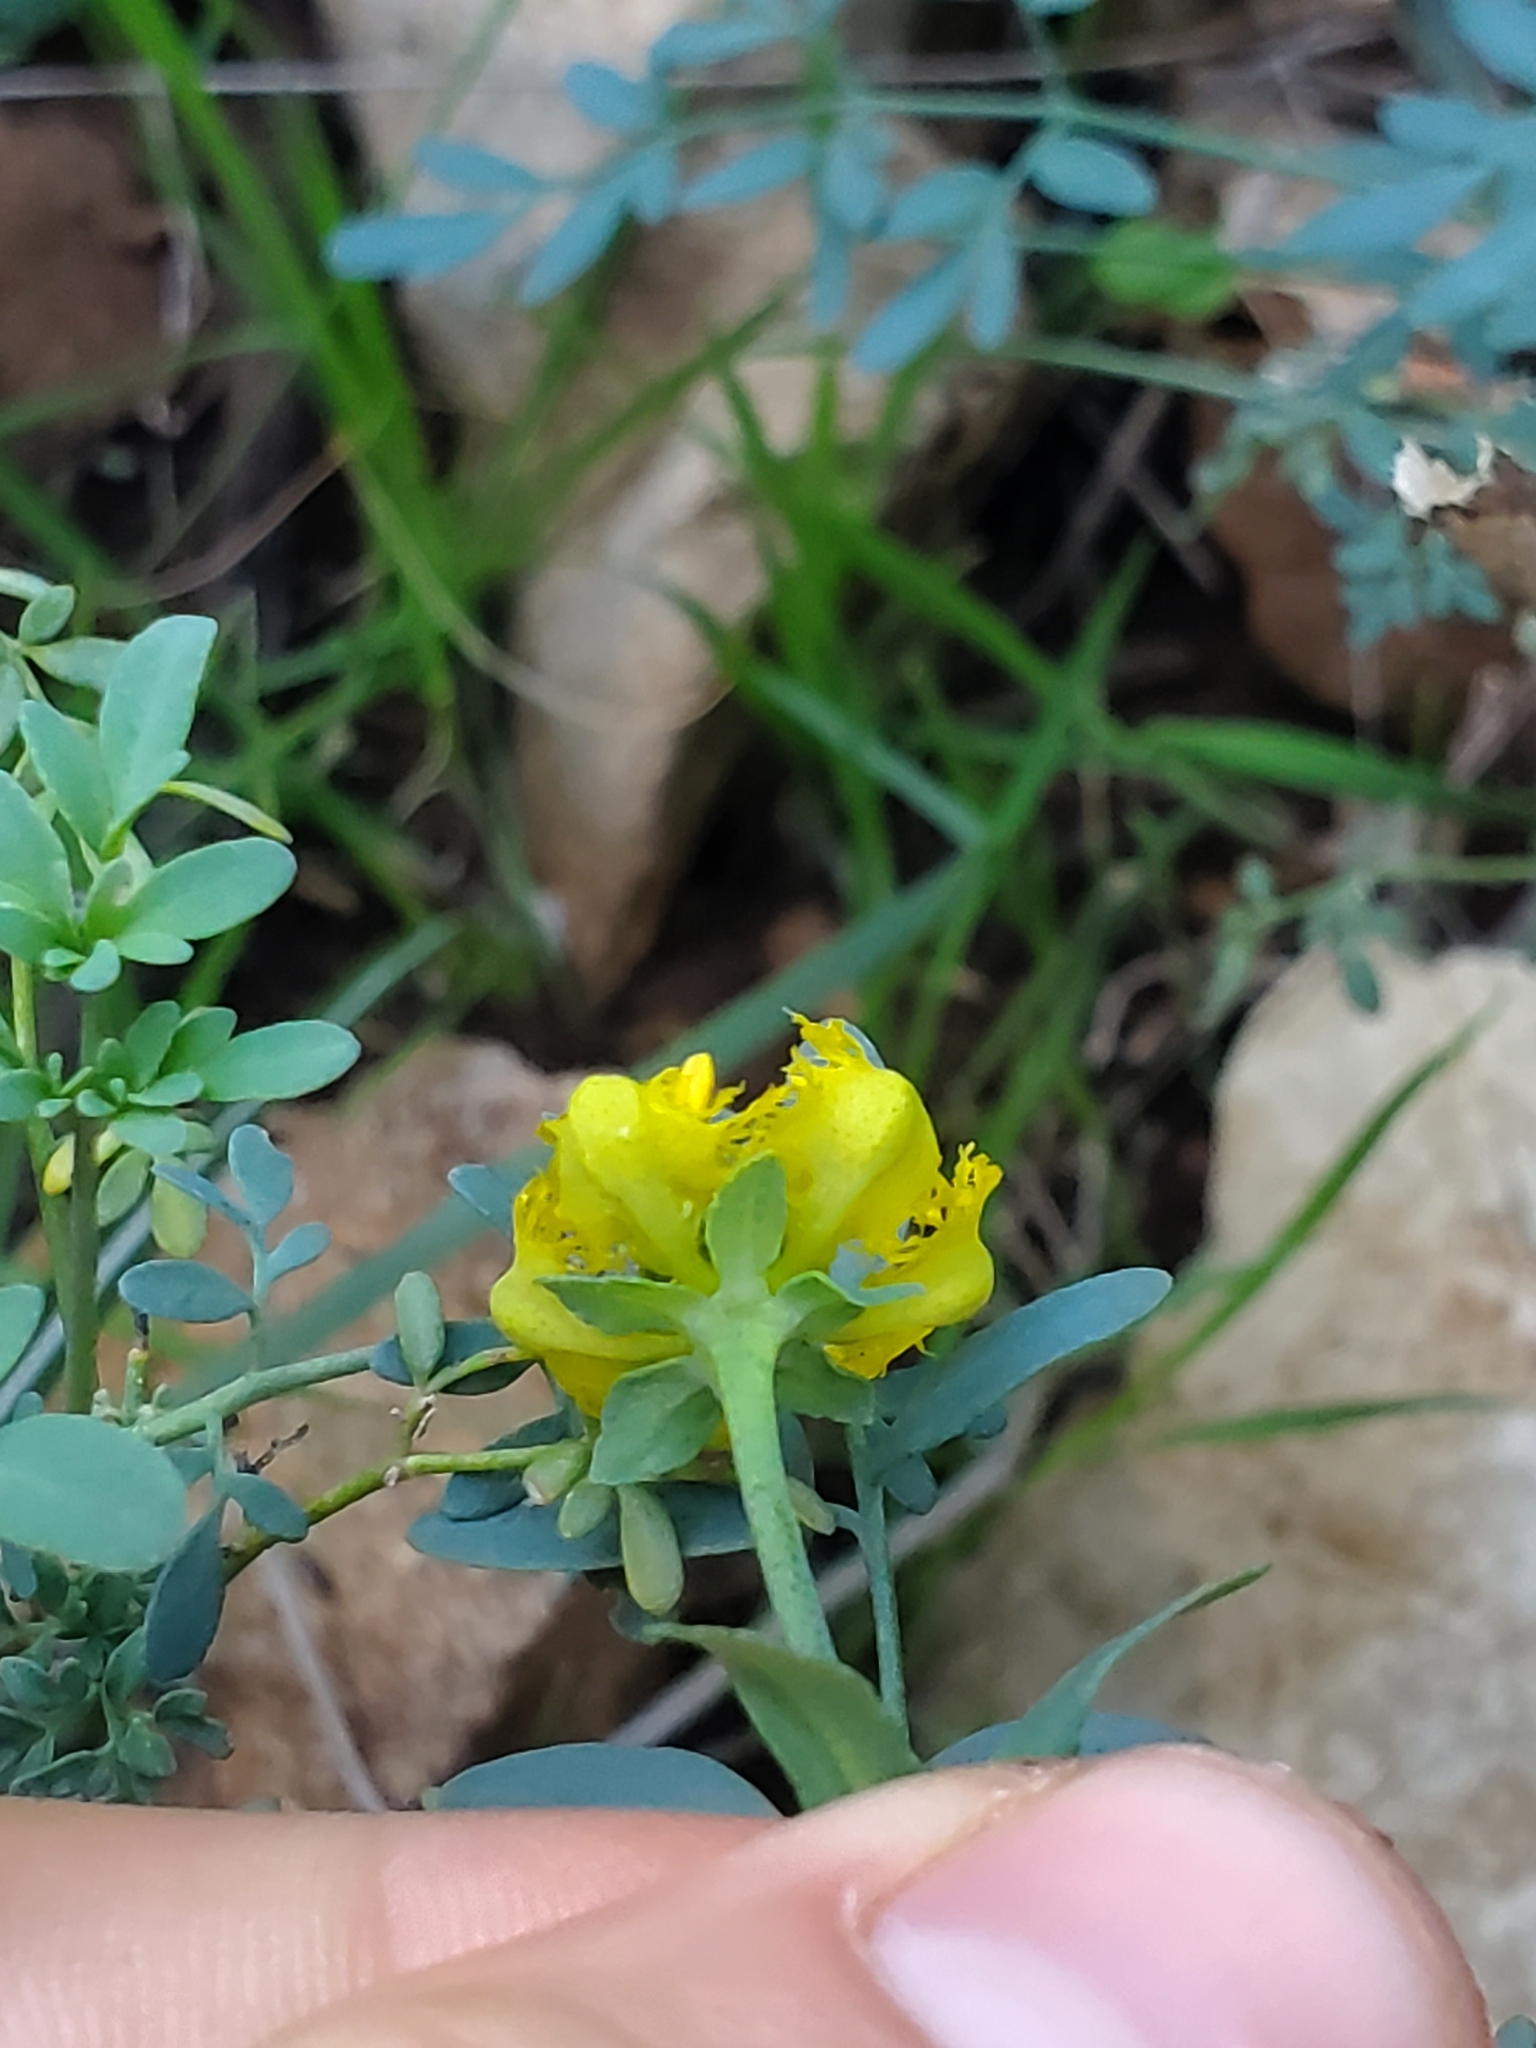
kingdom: Plantae
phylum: Tracheophyta
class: Magnoliopsida
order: Sapindales
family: Rutaceae
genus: Ruta
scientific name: Ruta chalepensis
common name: Fringed rue
